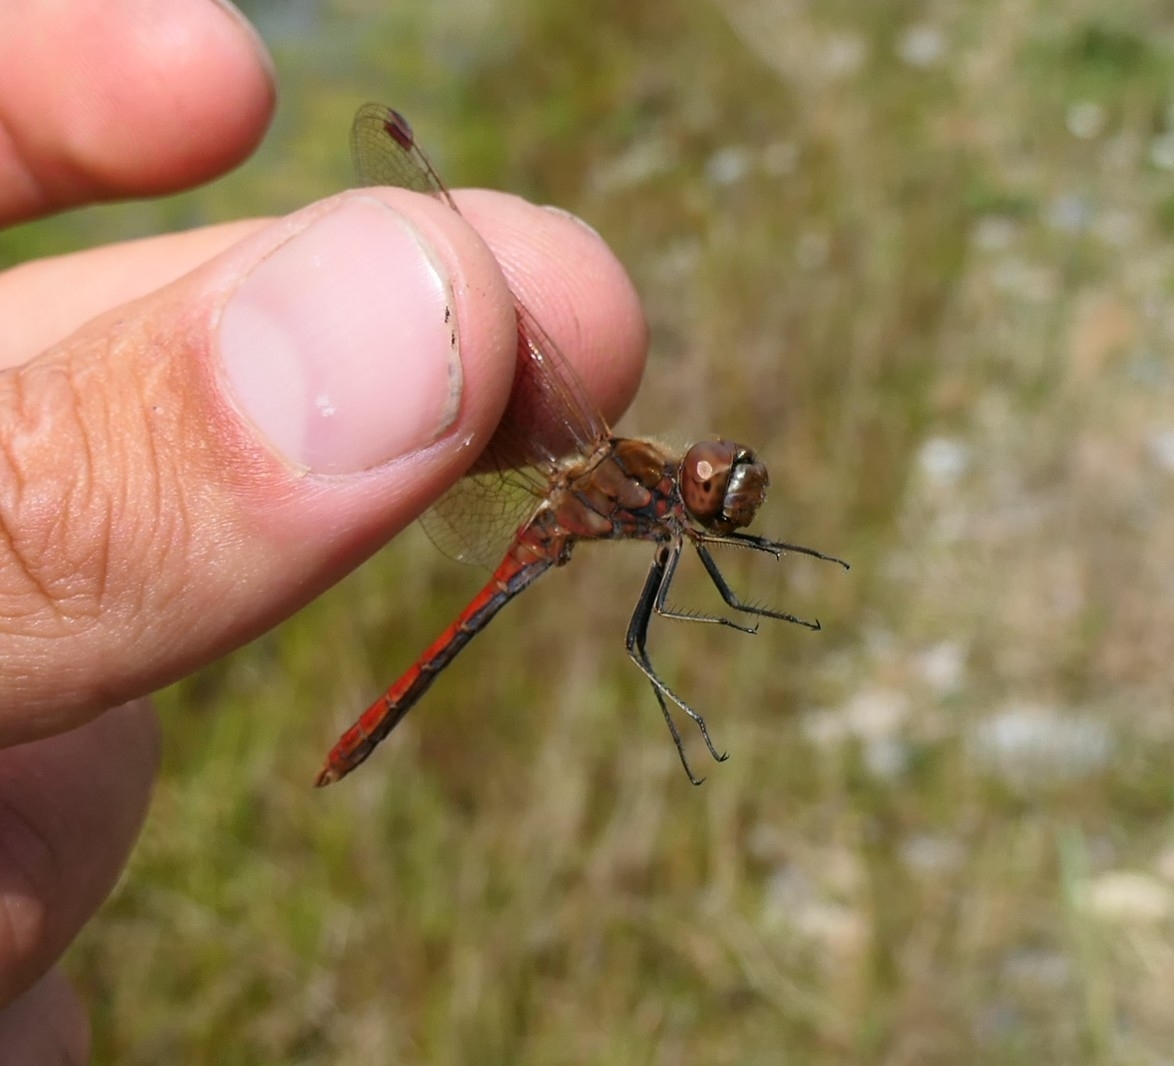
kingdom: Animalia
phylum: Arthropoda
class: Insecta
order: Odonata
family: Libellulidae
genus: Sympetrum
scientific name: Sympetrum vulgatum
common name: Vagrant darter
